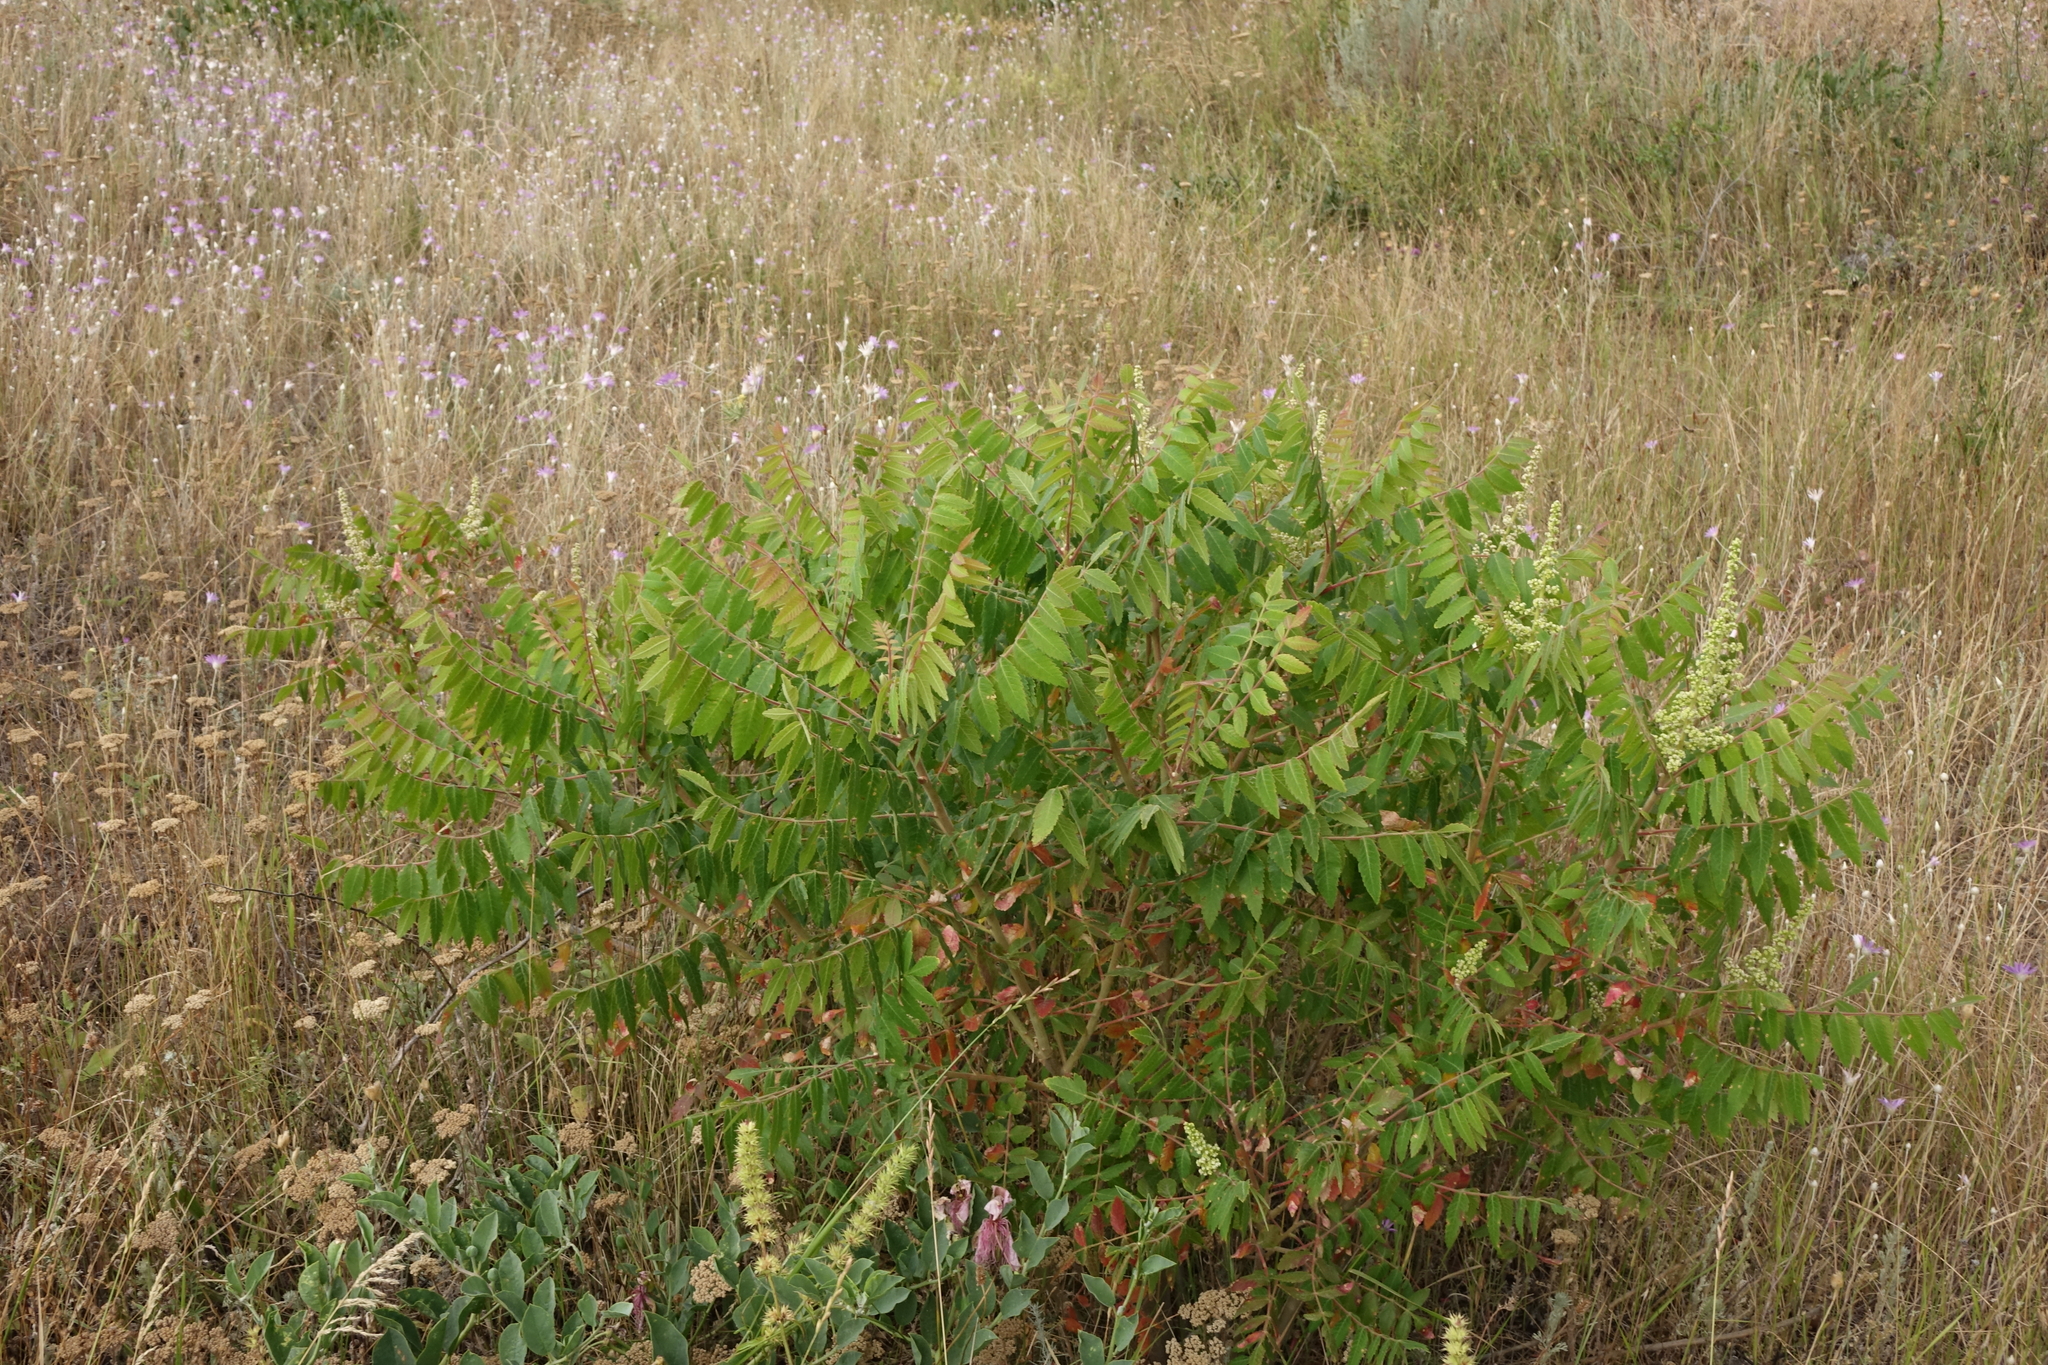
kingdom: Plantae
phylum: Tracheophyta
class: Magnoliopsida
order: Sapindales
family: Anacardiaceae
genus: Rhus
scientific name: Rhus coriaria
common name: Tanner's sumach
